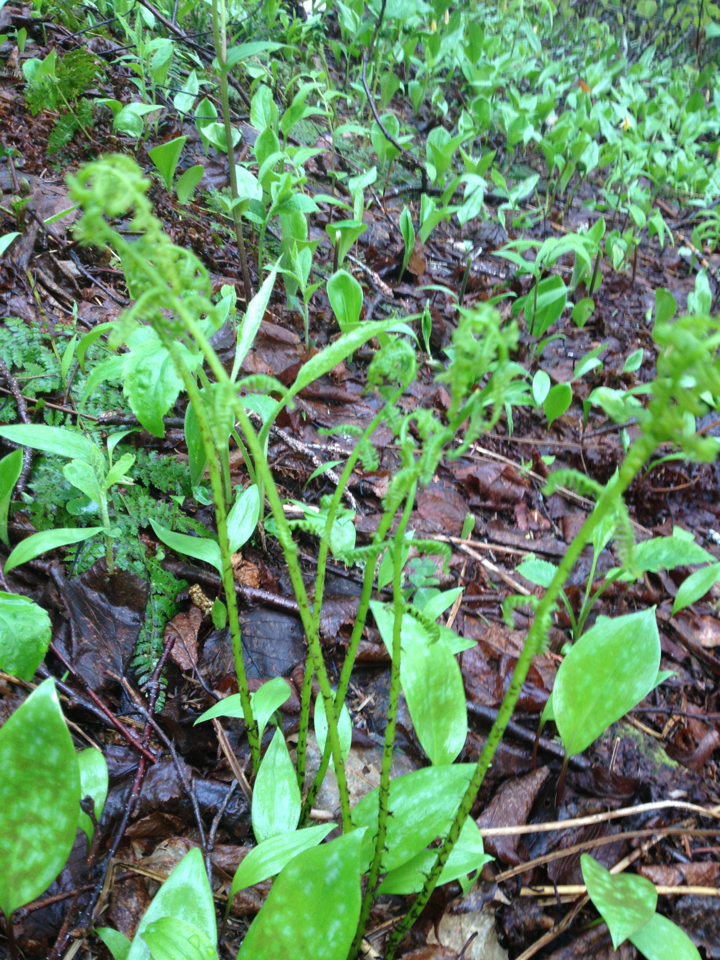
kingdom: Plantae
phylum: Tracheophyta
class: Polypodiopsida
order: Polypodiales
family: Athyriaceae
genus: Athyrium
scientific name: Athyrium angustum
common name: Northern lady fern
